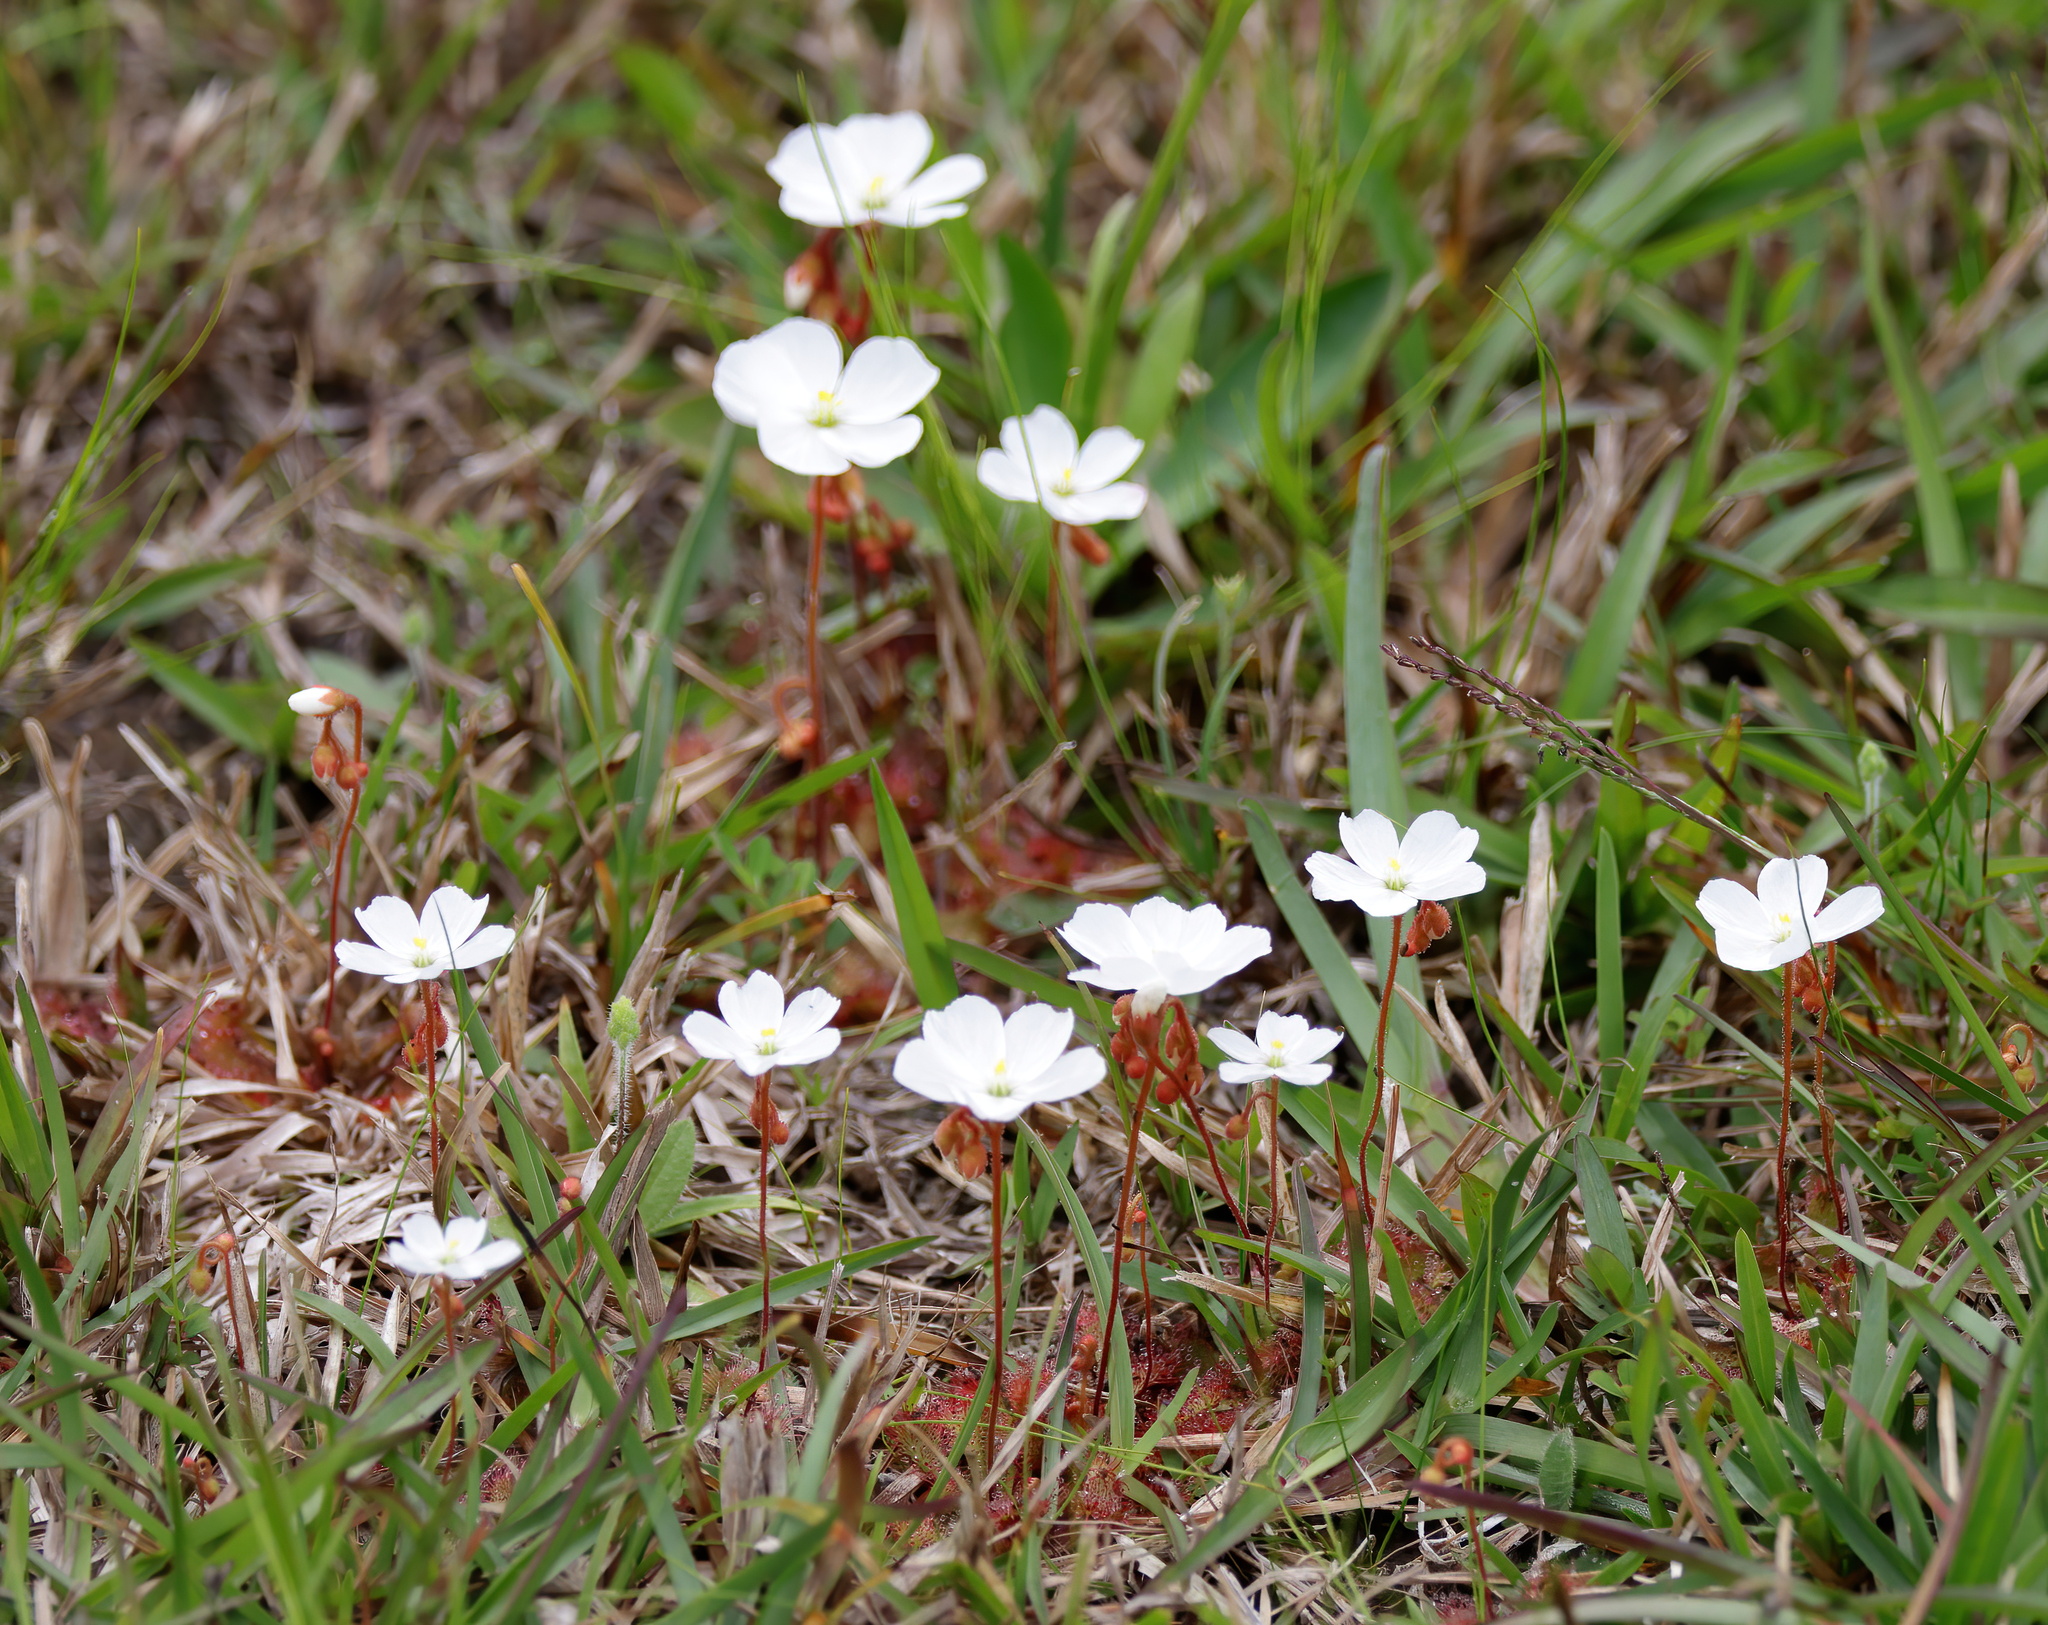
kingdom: Plantae
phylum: Tracheophyta
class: Magnoliopsida
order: Caryophyllales
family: Droseraceae
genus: Drosera
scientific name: Drosera brevifolia
